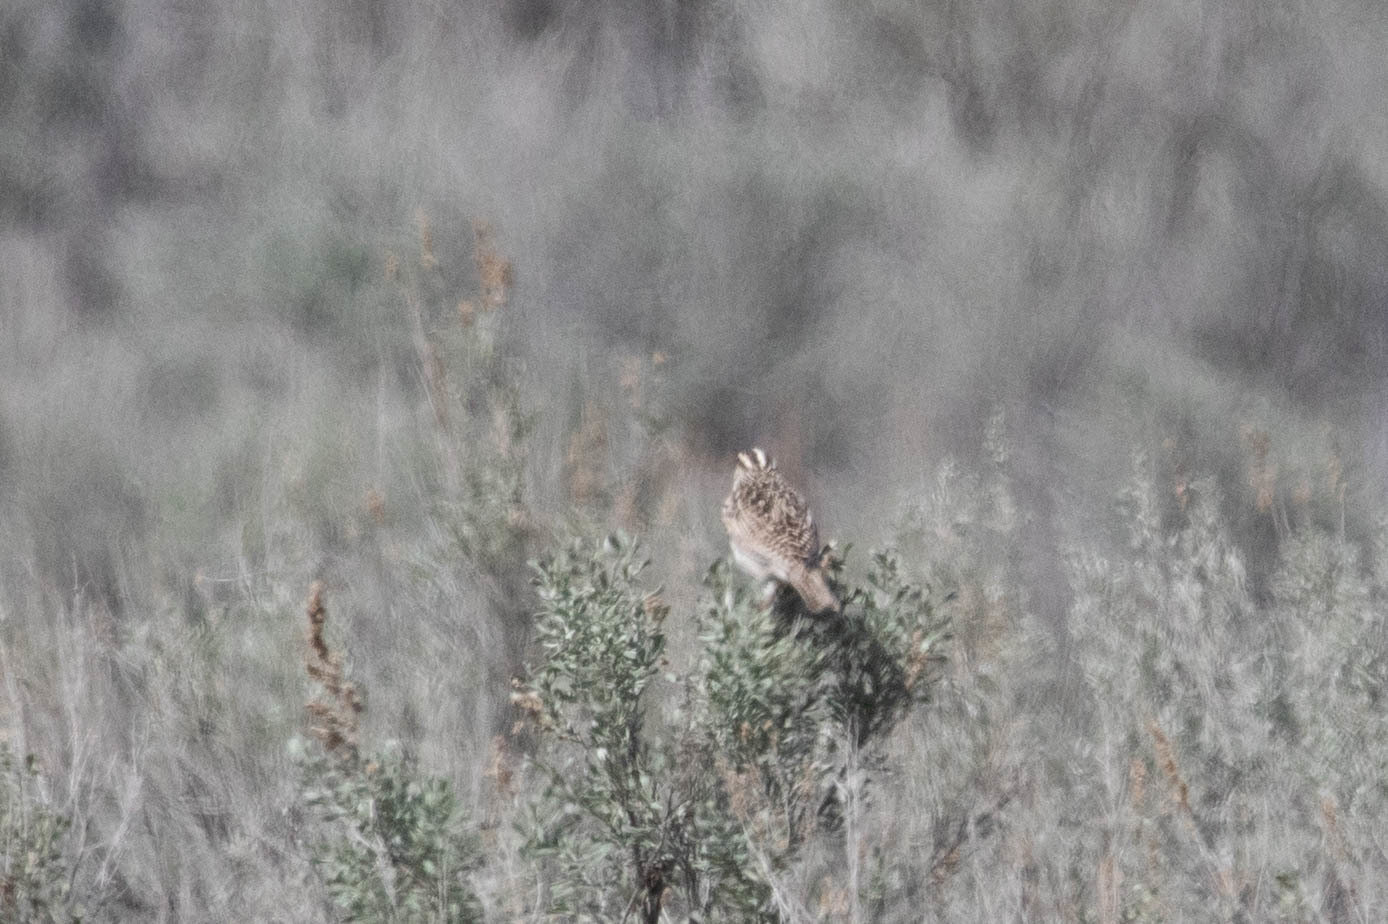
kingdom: Animalia
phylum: Chordata
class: Aves
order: Passeriformes
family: Icteridae
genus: Sturnella
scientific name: Sturnella neglecta
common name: Western meadowlark
